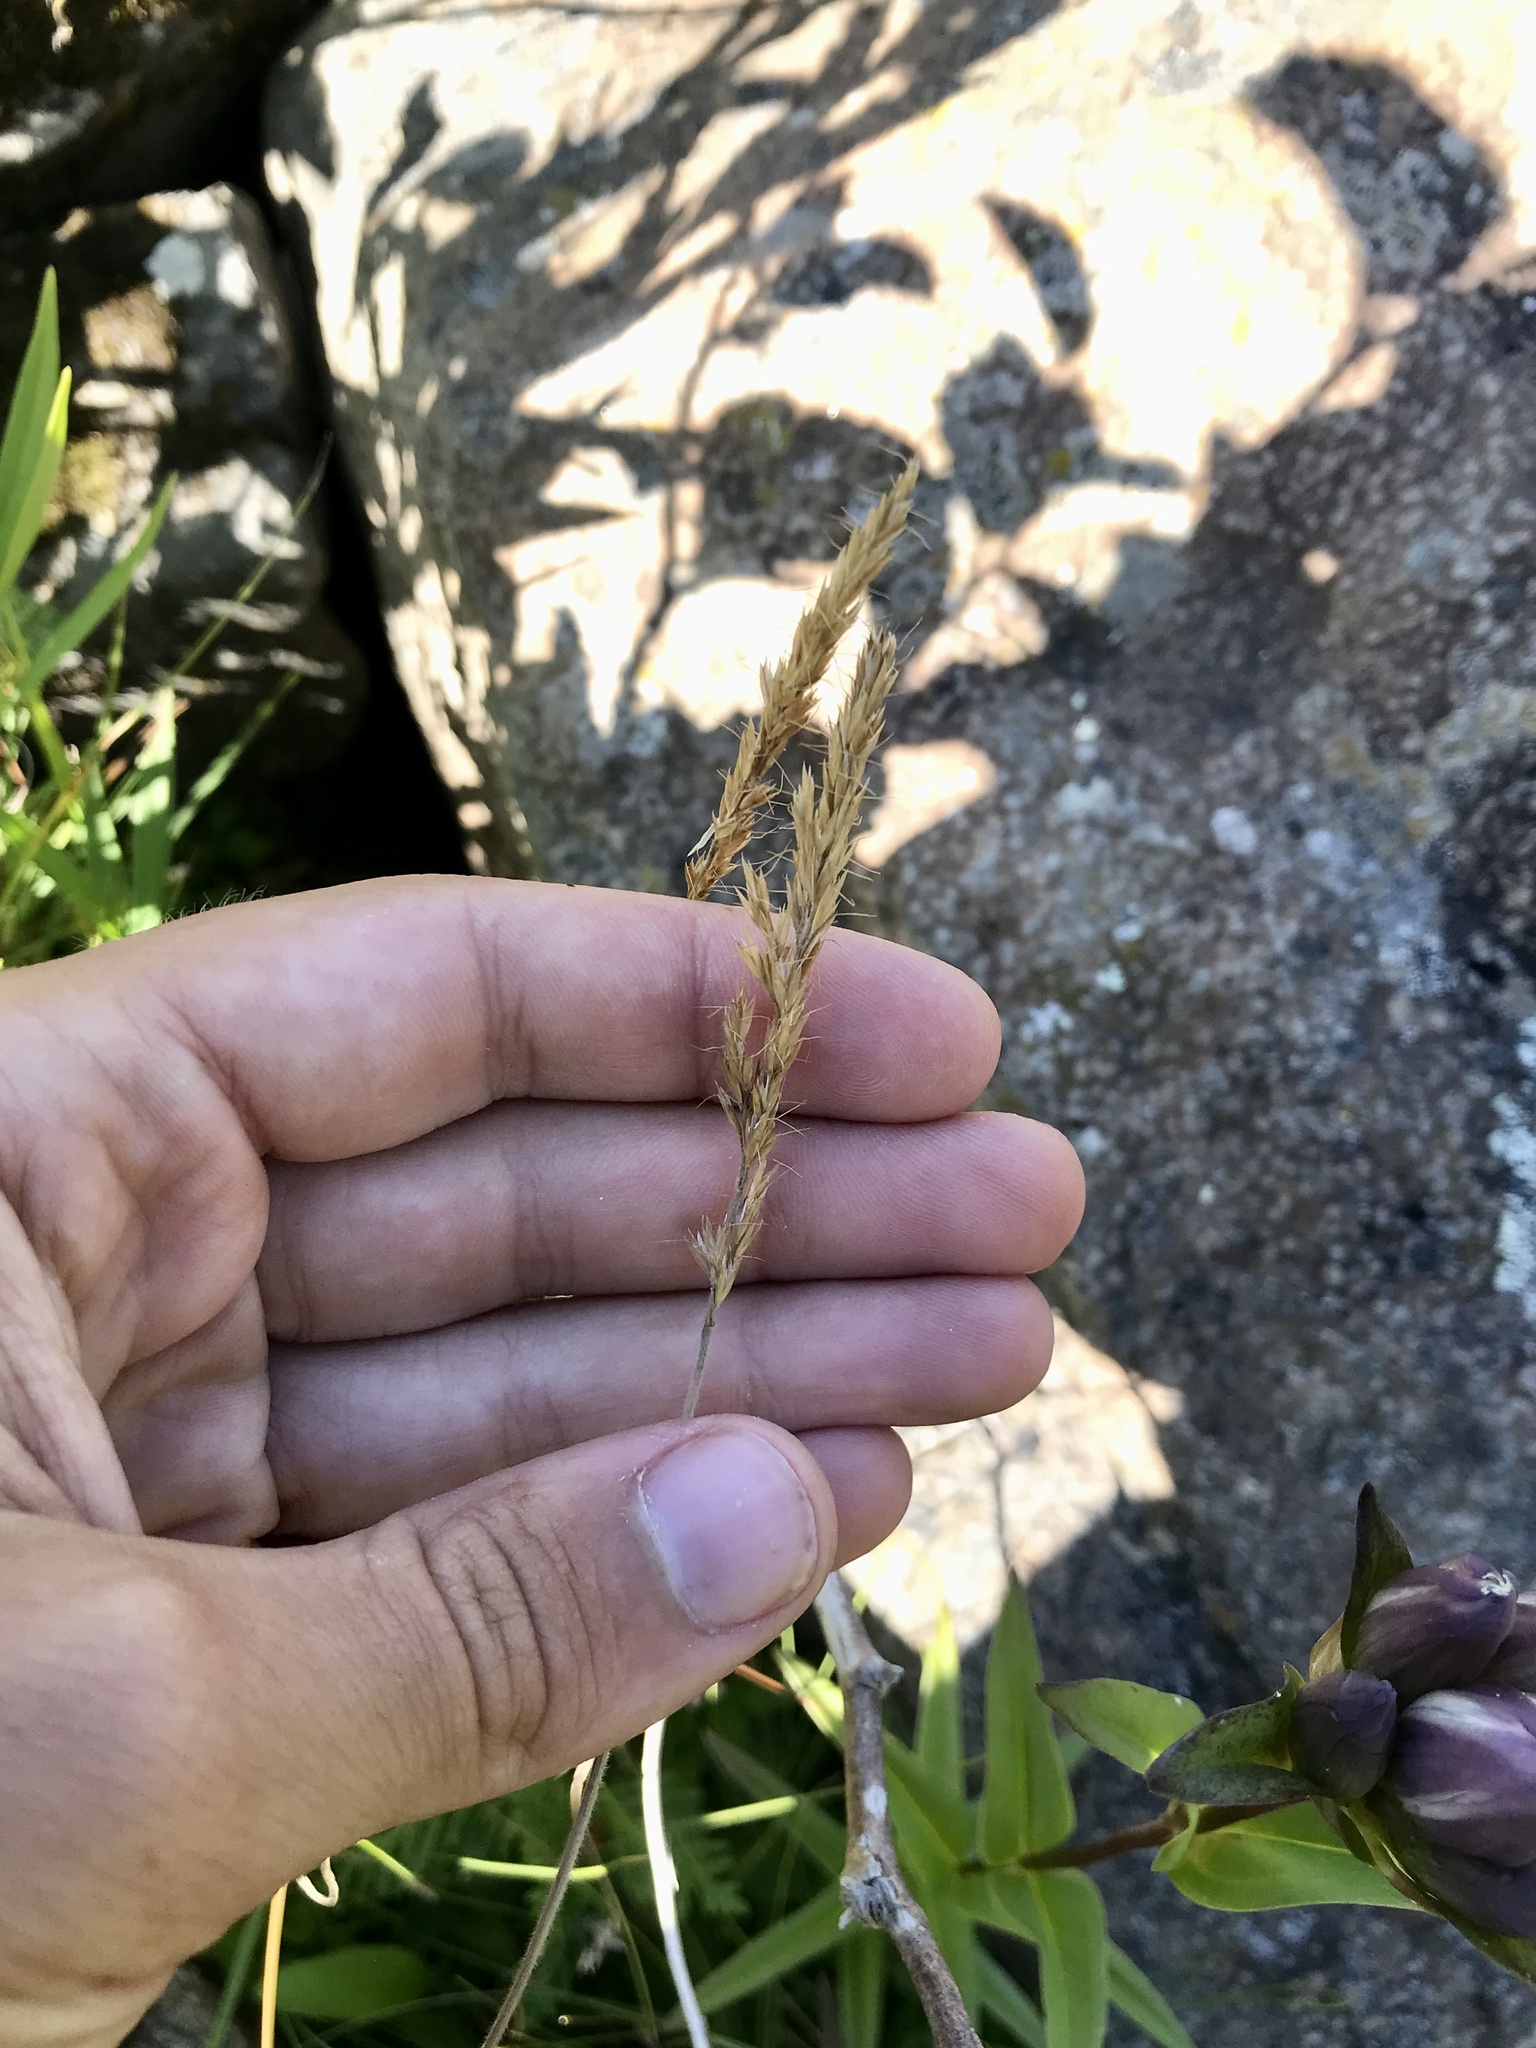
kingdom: Plantae
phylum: Tracheophyta
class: Liliopsida
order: Poales
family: Poaceae
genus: Koeleria
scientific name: Koeleria spicata
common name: Mountain trisetum
